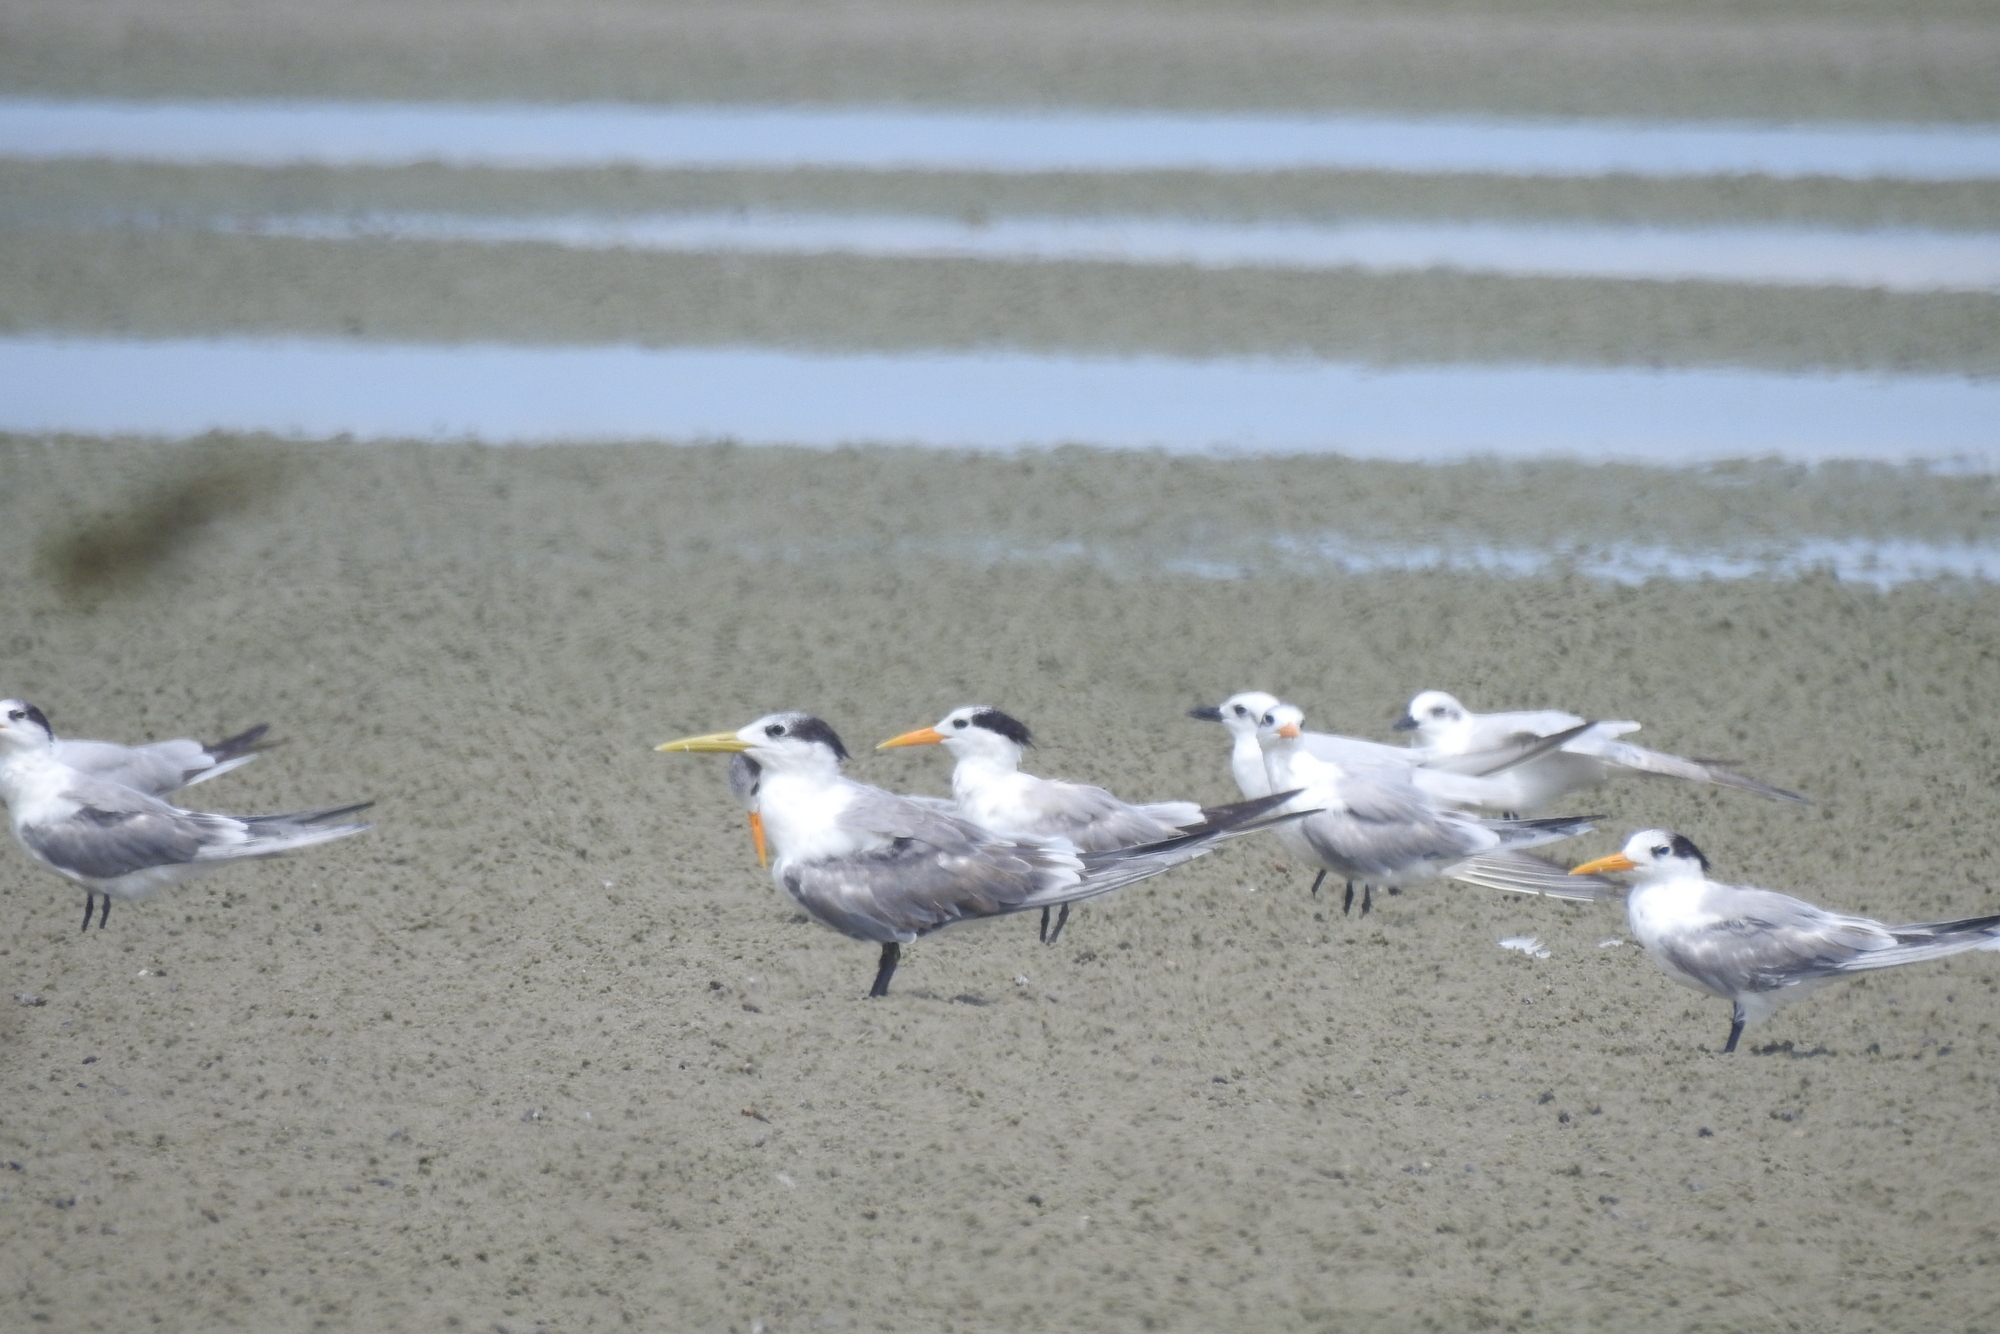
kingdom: Animalia
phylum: Chordata
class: Aves
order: Charadriiformes
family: Laridae
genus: Thalasseus
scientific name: Thalasseus bengalensis
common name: Lesser crested tern
